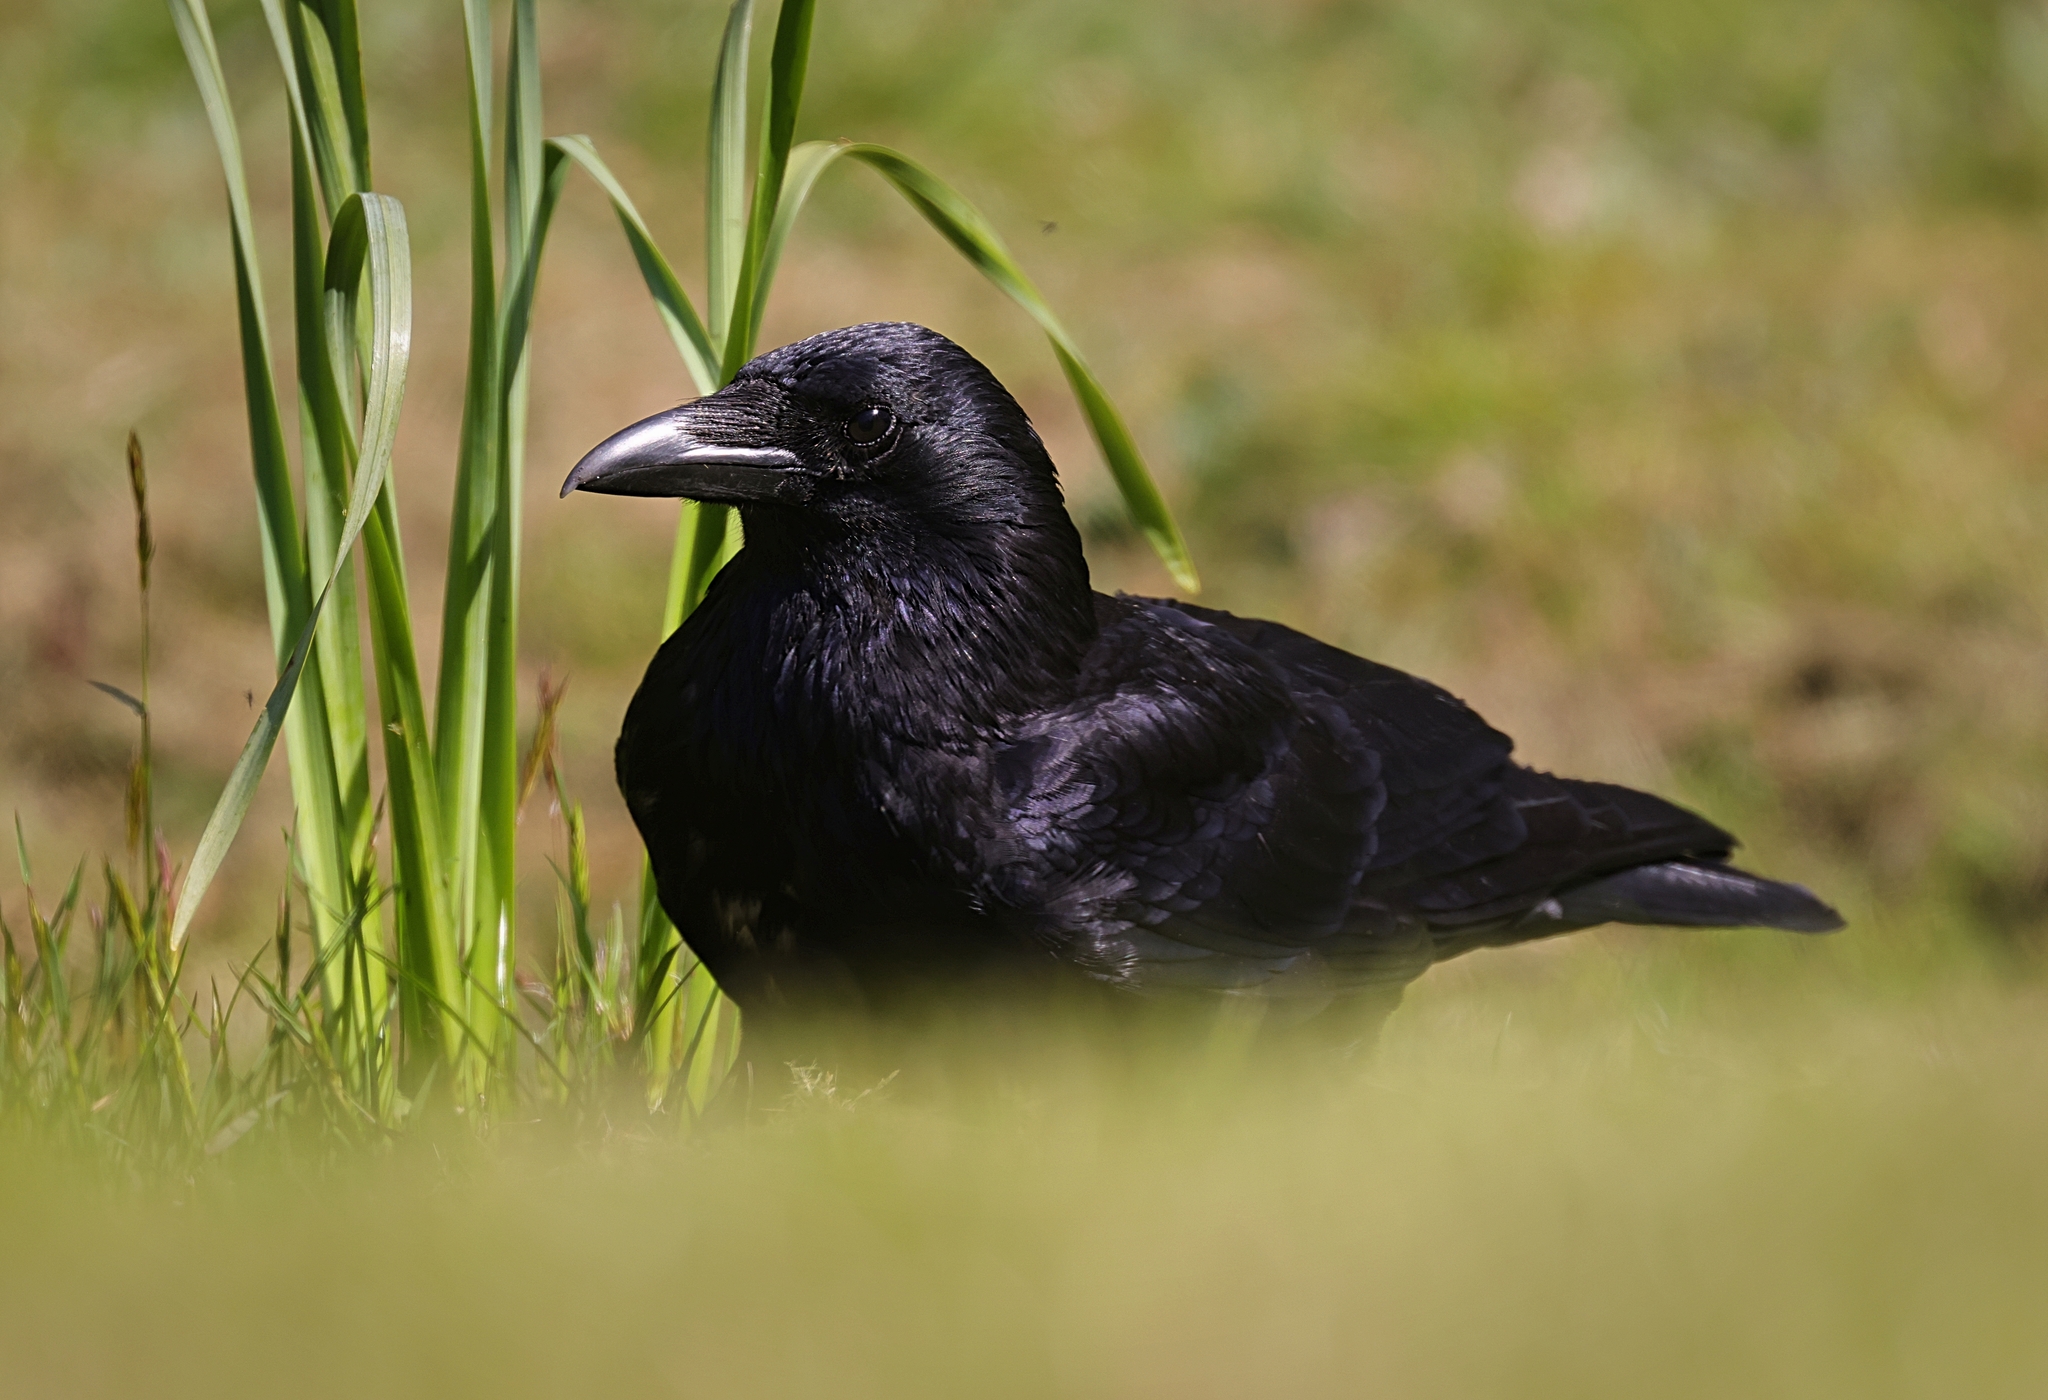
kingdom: Animalia
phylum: Chordata
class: Aves
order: Passeriformes
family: Corvidae
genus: Corvus
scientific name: Corvus corone
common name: Carrion crow
